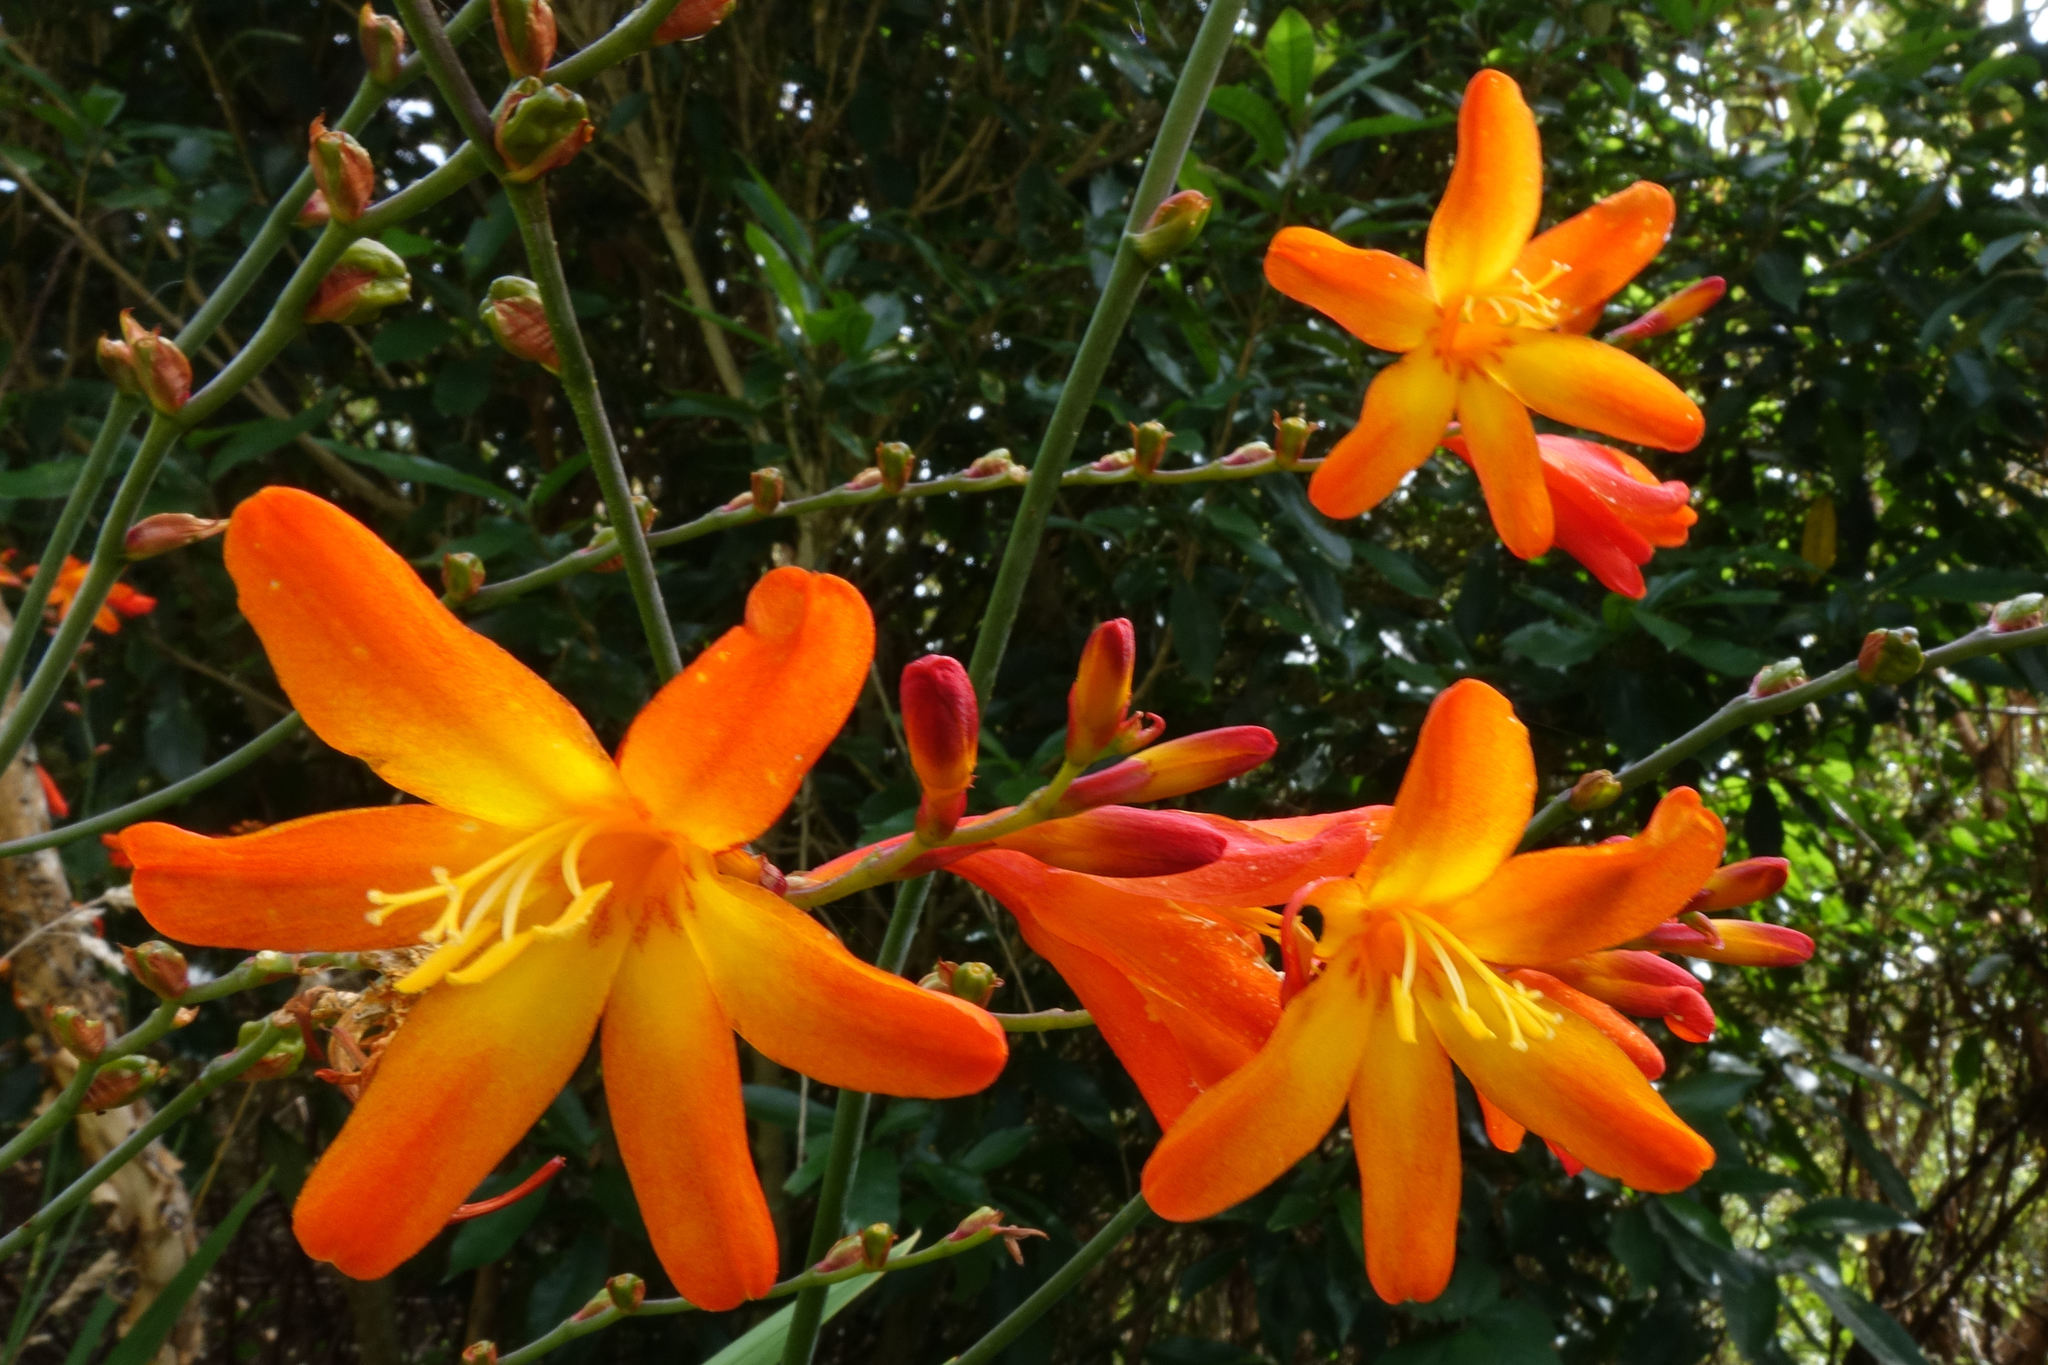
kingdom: Plantae
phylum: Tracheophyta
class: Liliopsida
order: Asparagales
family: Iridaceae
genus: Crocosmia
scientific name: Crocosmia crocosmiiflora
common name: Montbretia
